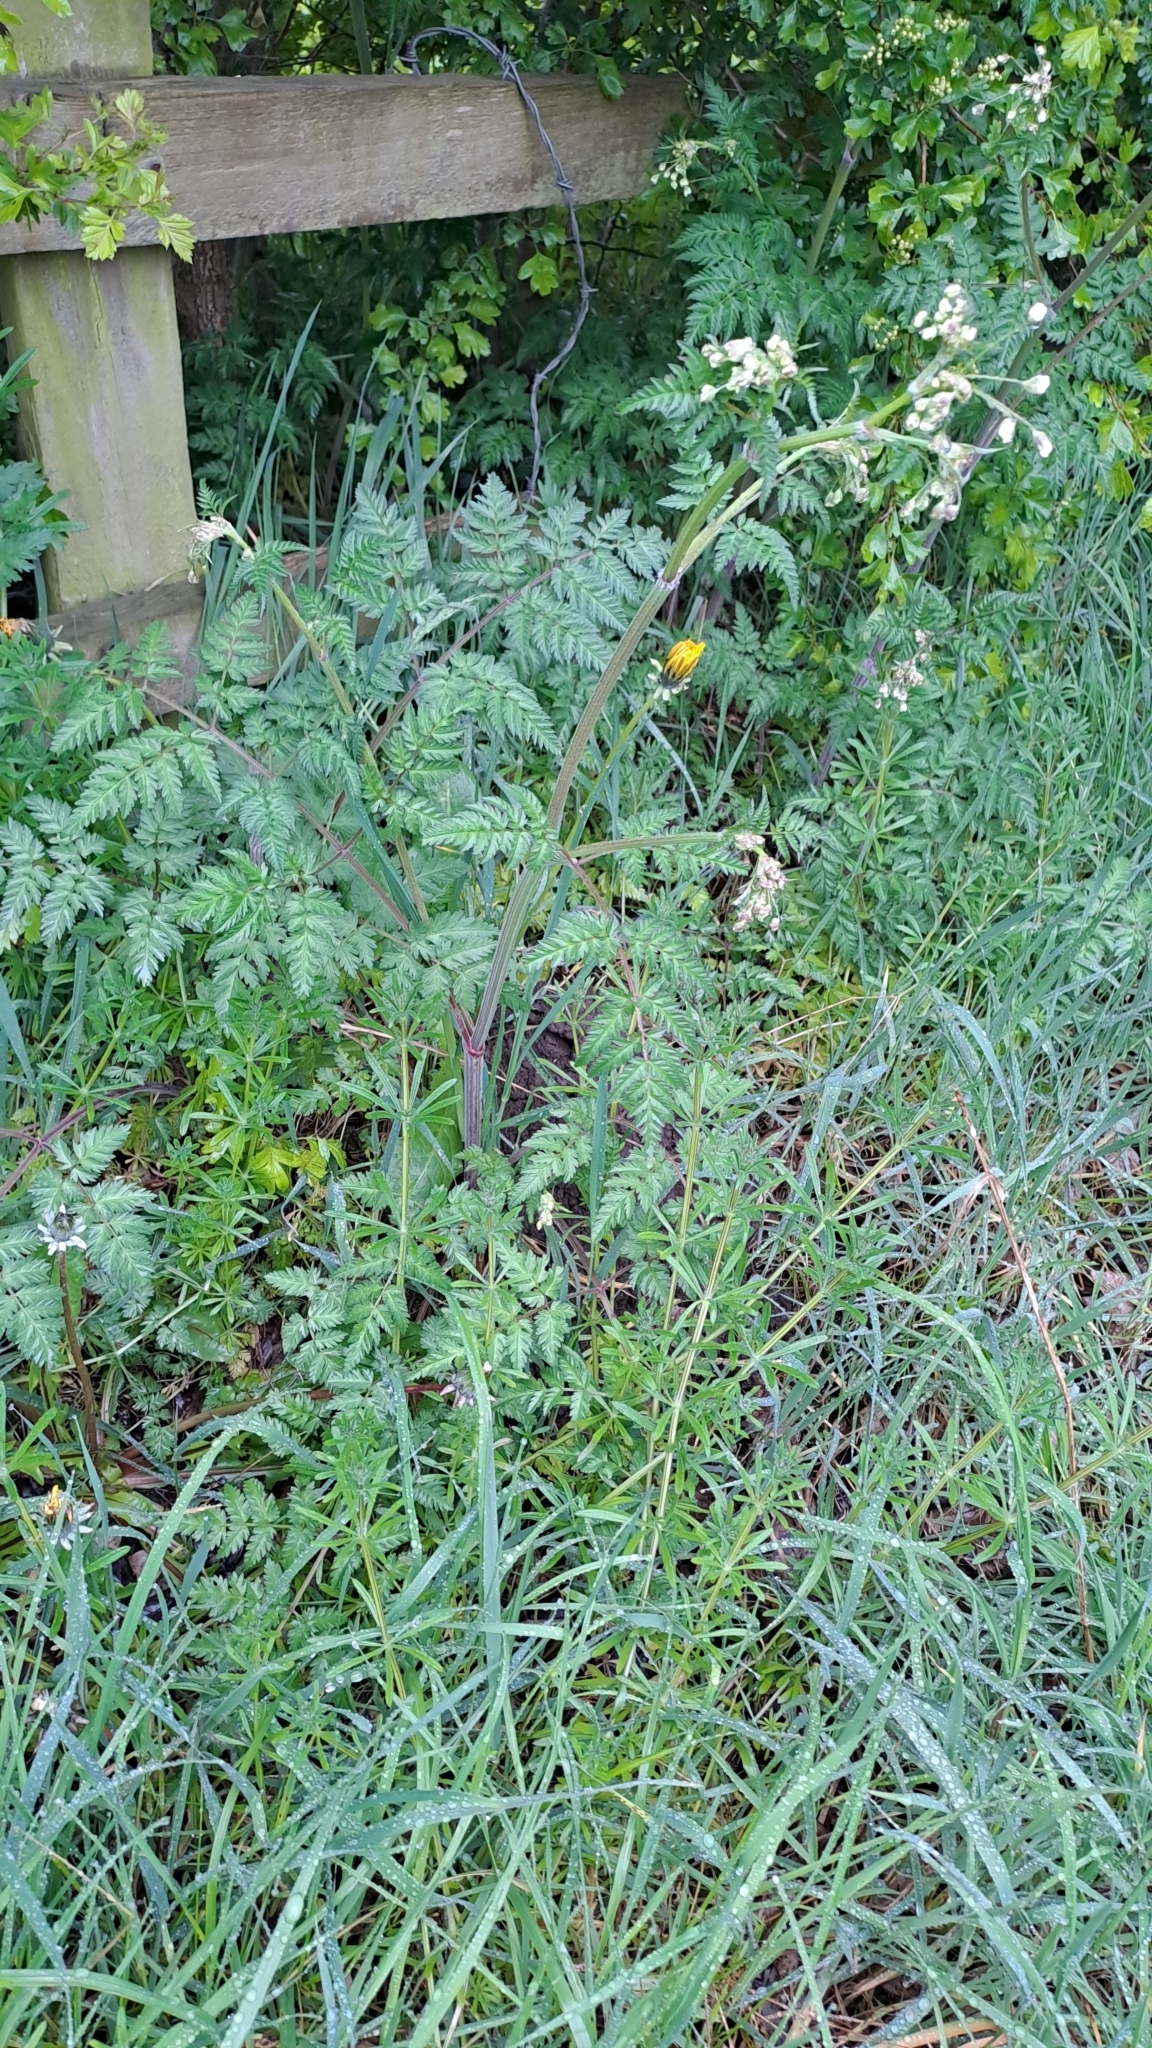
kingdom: Plantae
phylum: Tracheophyta
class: Magnoliopsida
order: Apiales
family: Apiaceae
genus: Anthriscus
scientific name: Anthriscus sylvestris
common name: Cow parsley
